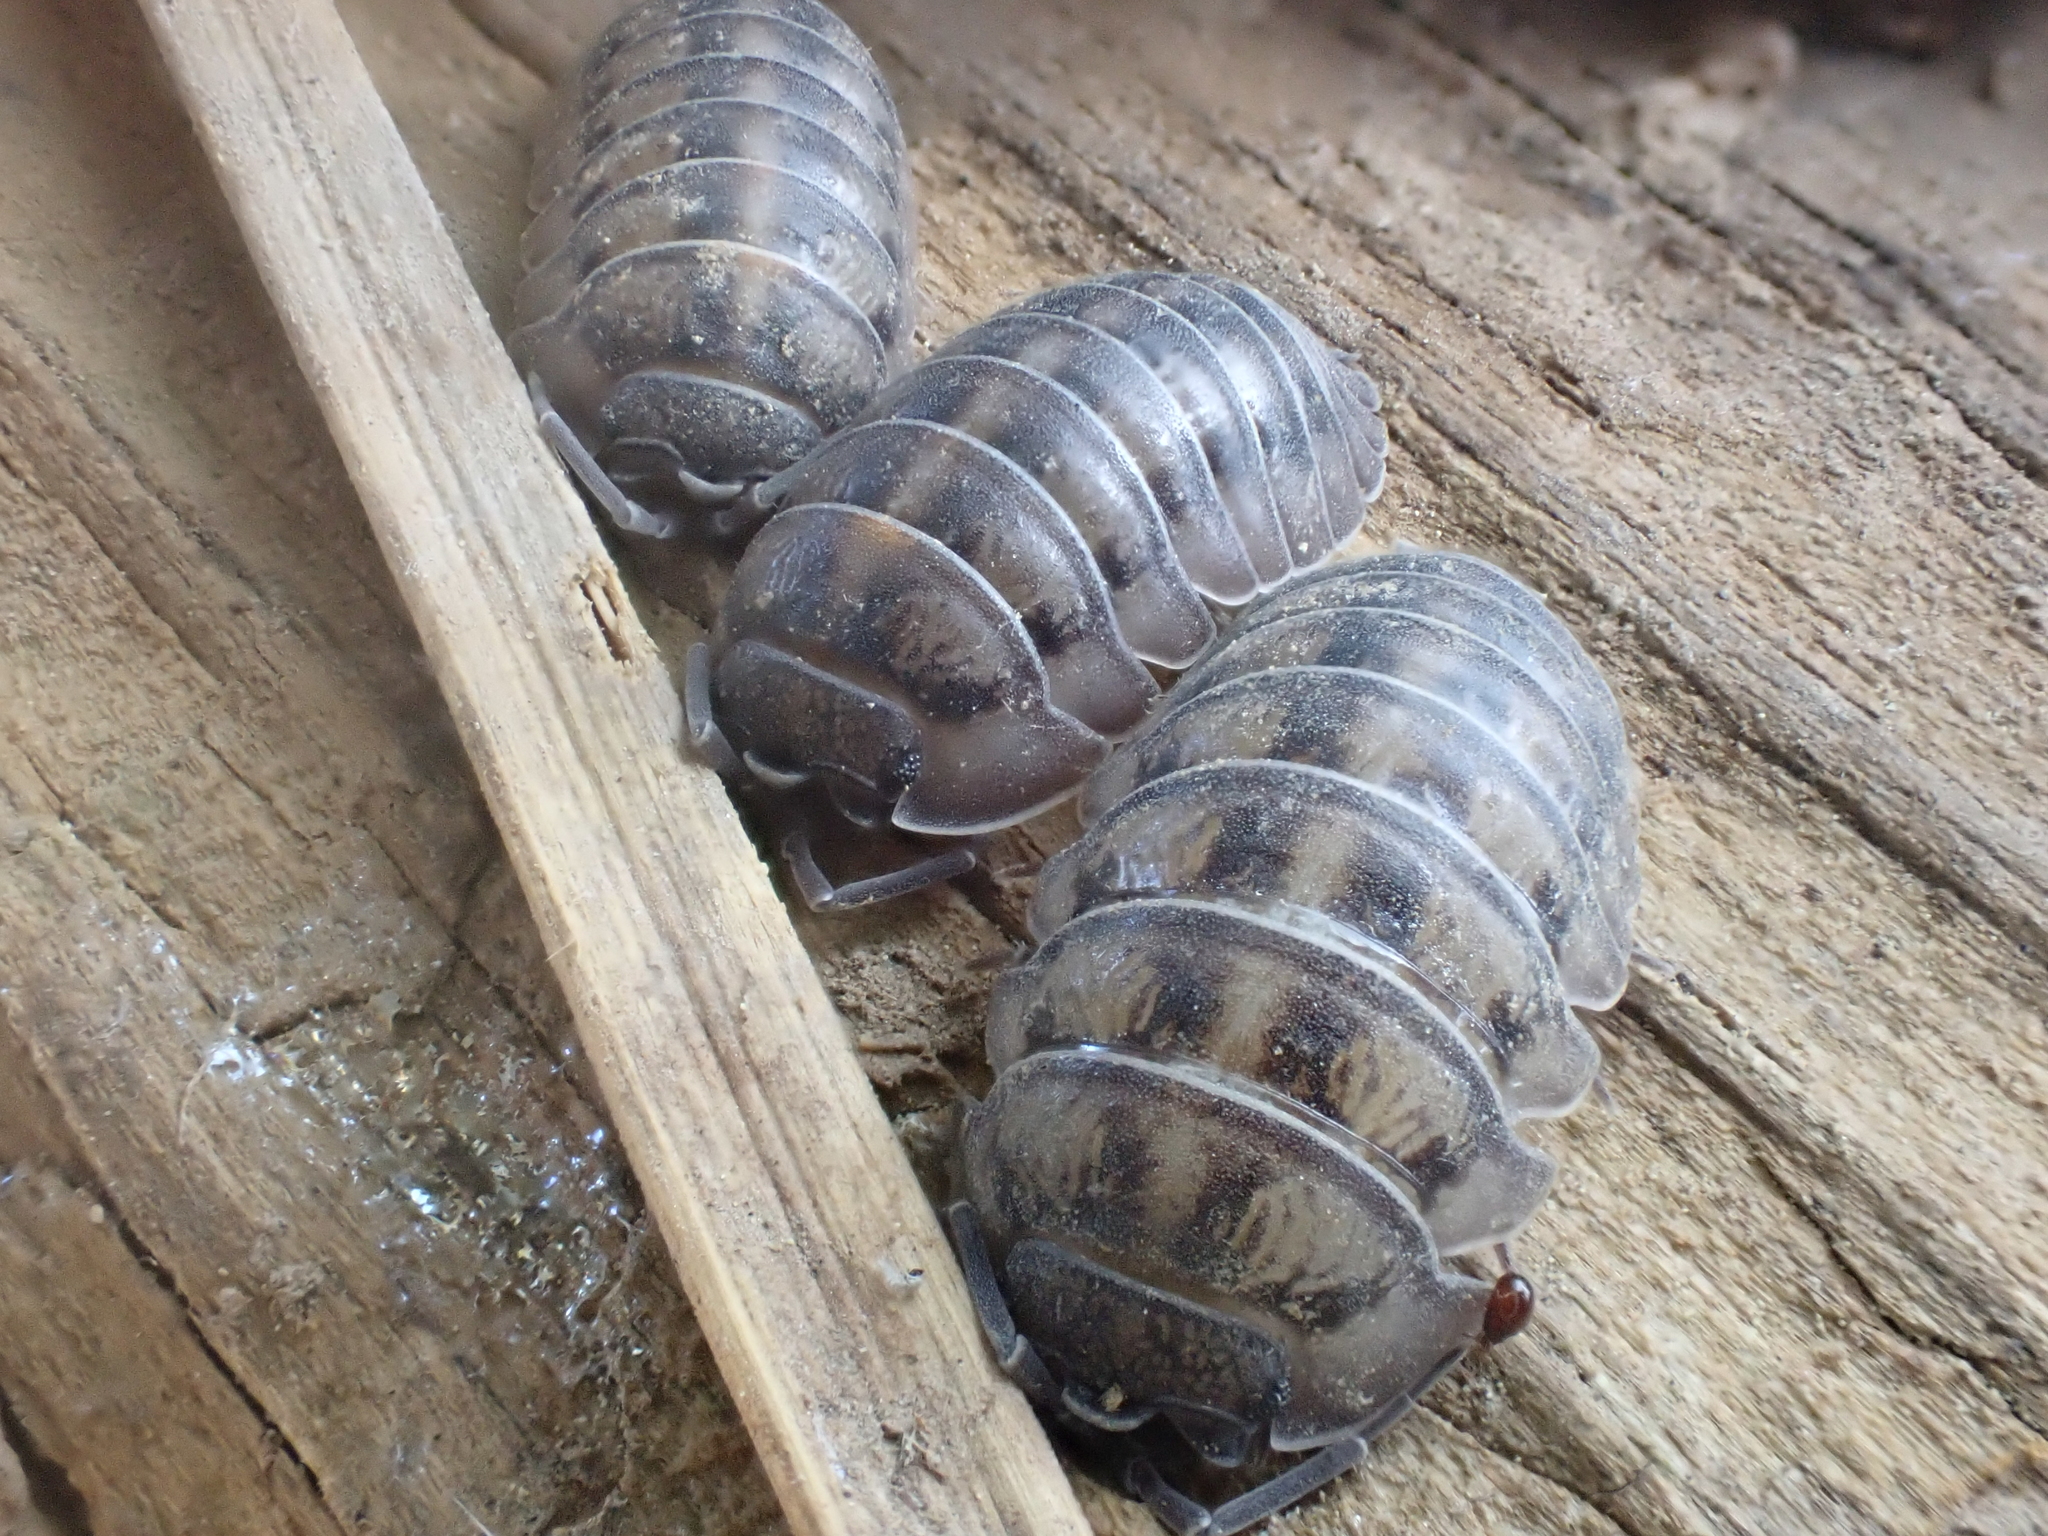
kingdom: Animalia
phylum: Arthropoda
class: Malacostraca
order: Isopoda
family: Armadillidiidae
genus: Armadillidium
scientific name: Armadillidium nasatum
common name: Isopod
